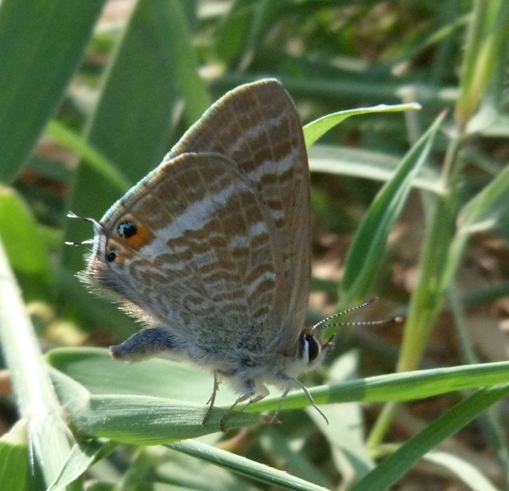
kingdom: Animalia
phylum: Arthropoda
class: Insecta
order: Lepidoptera
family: Lycaenidae
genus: Lampides
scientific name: Lampides boeticus
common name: Long-tailed blue
